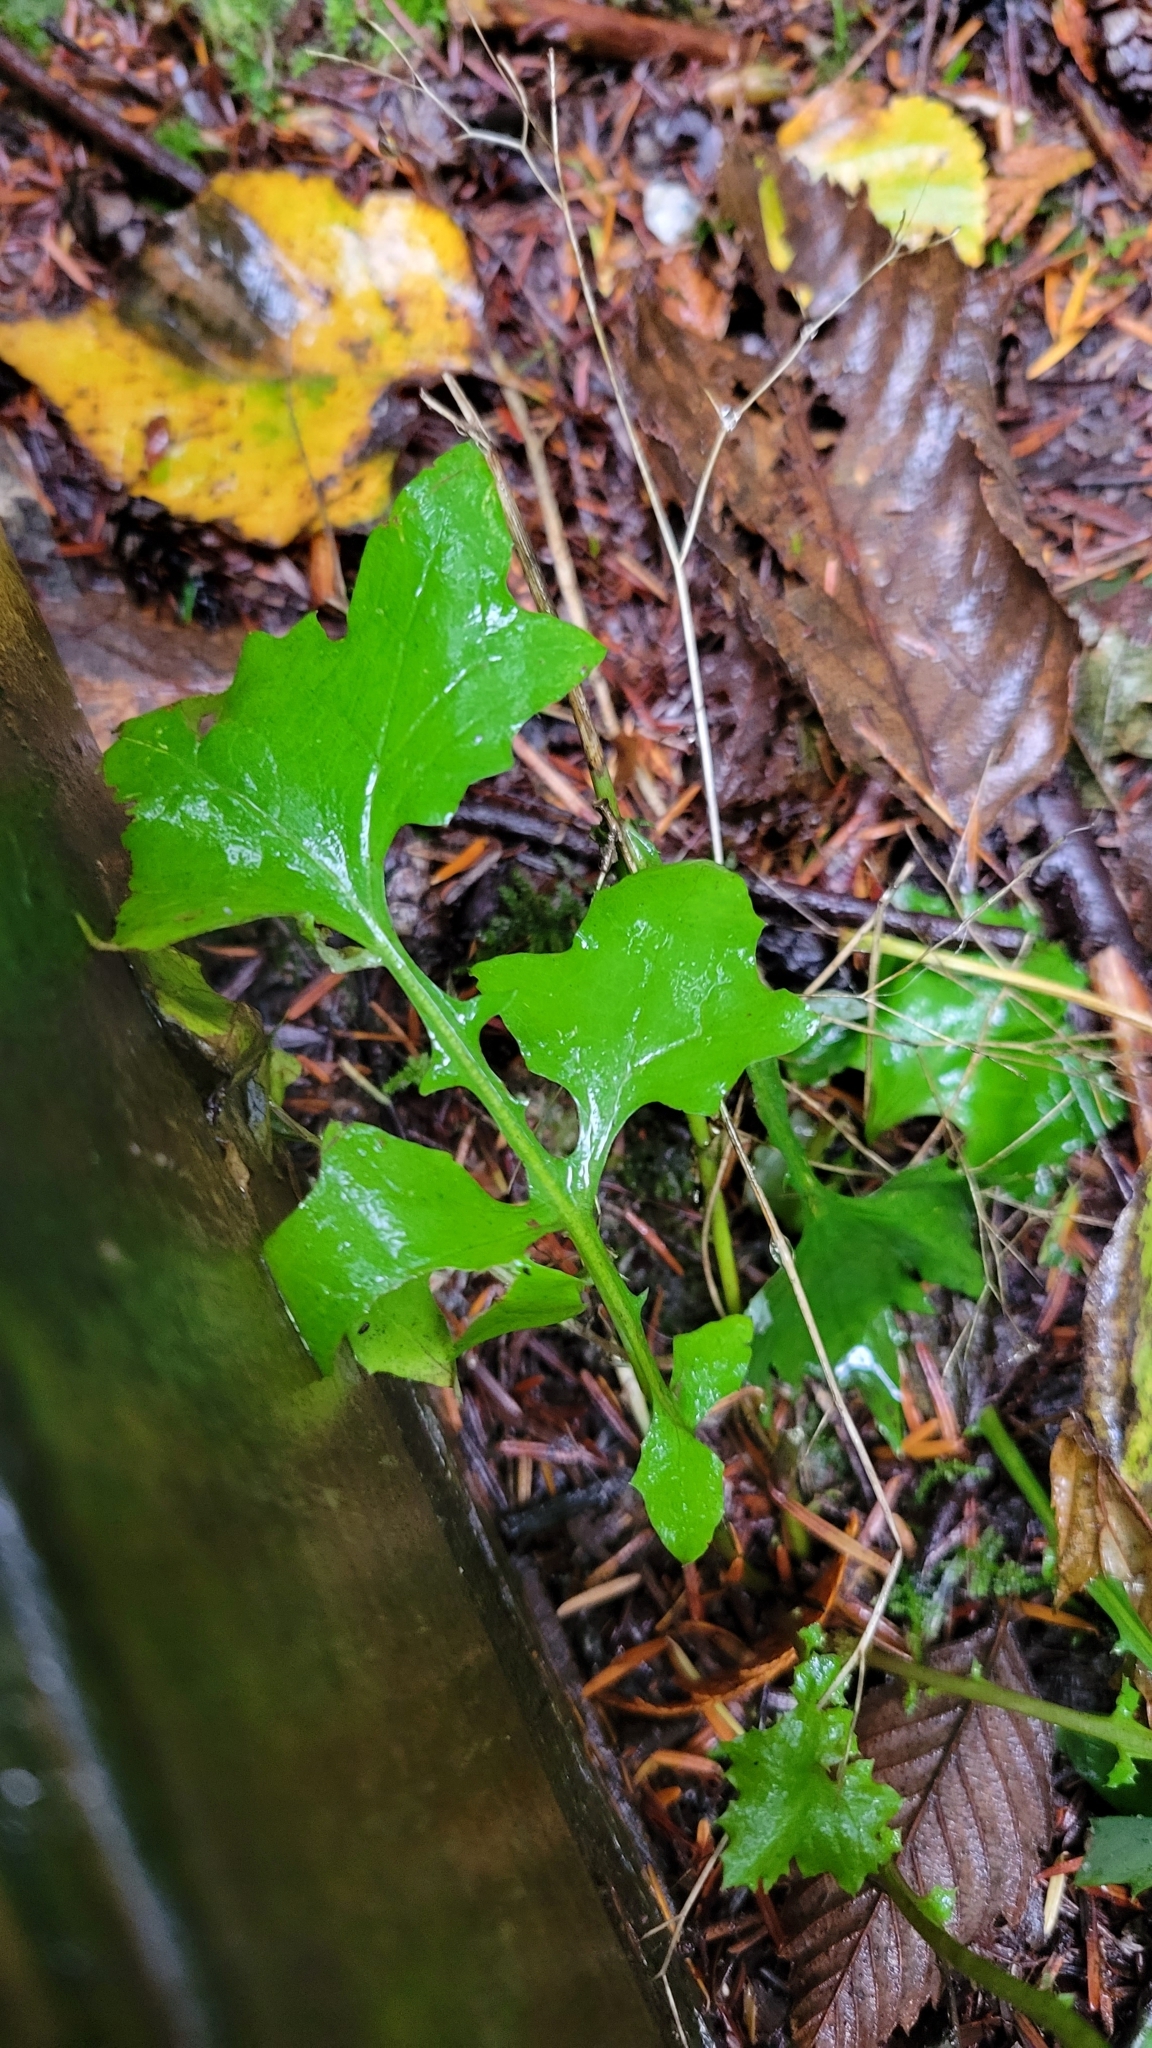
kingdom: Plantae
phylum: Tracheophyta
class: Magnoliopsida
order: Asterales
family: Asteraceae
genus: Mycelis
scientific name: Mycelis muralis
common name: Wall lettuce
